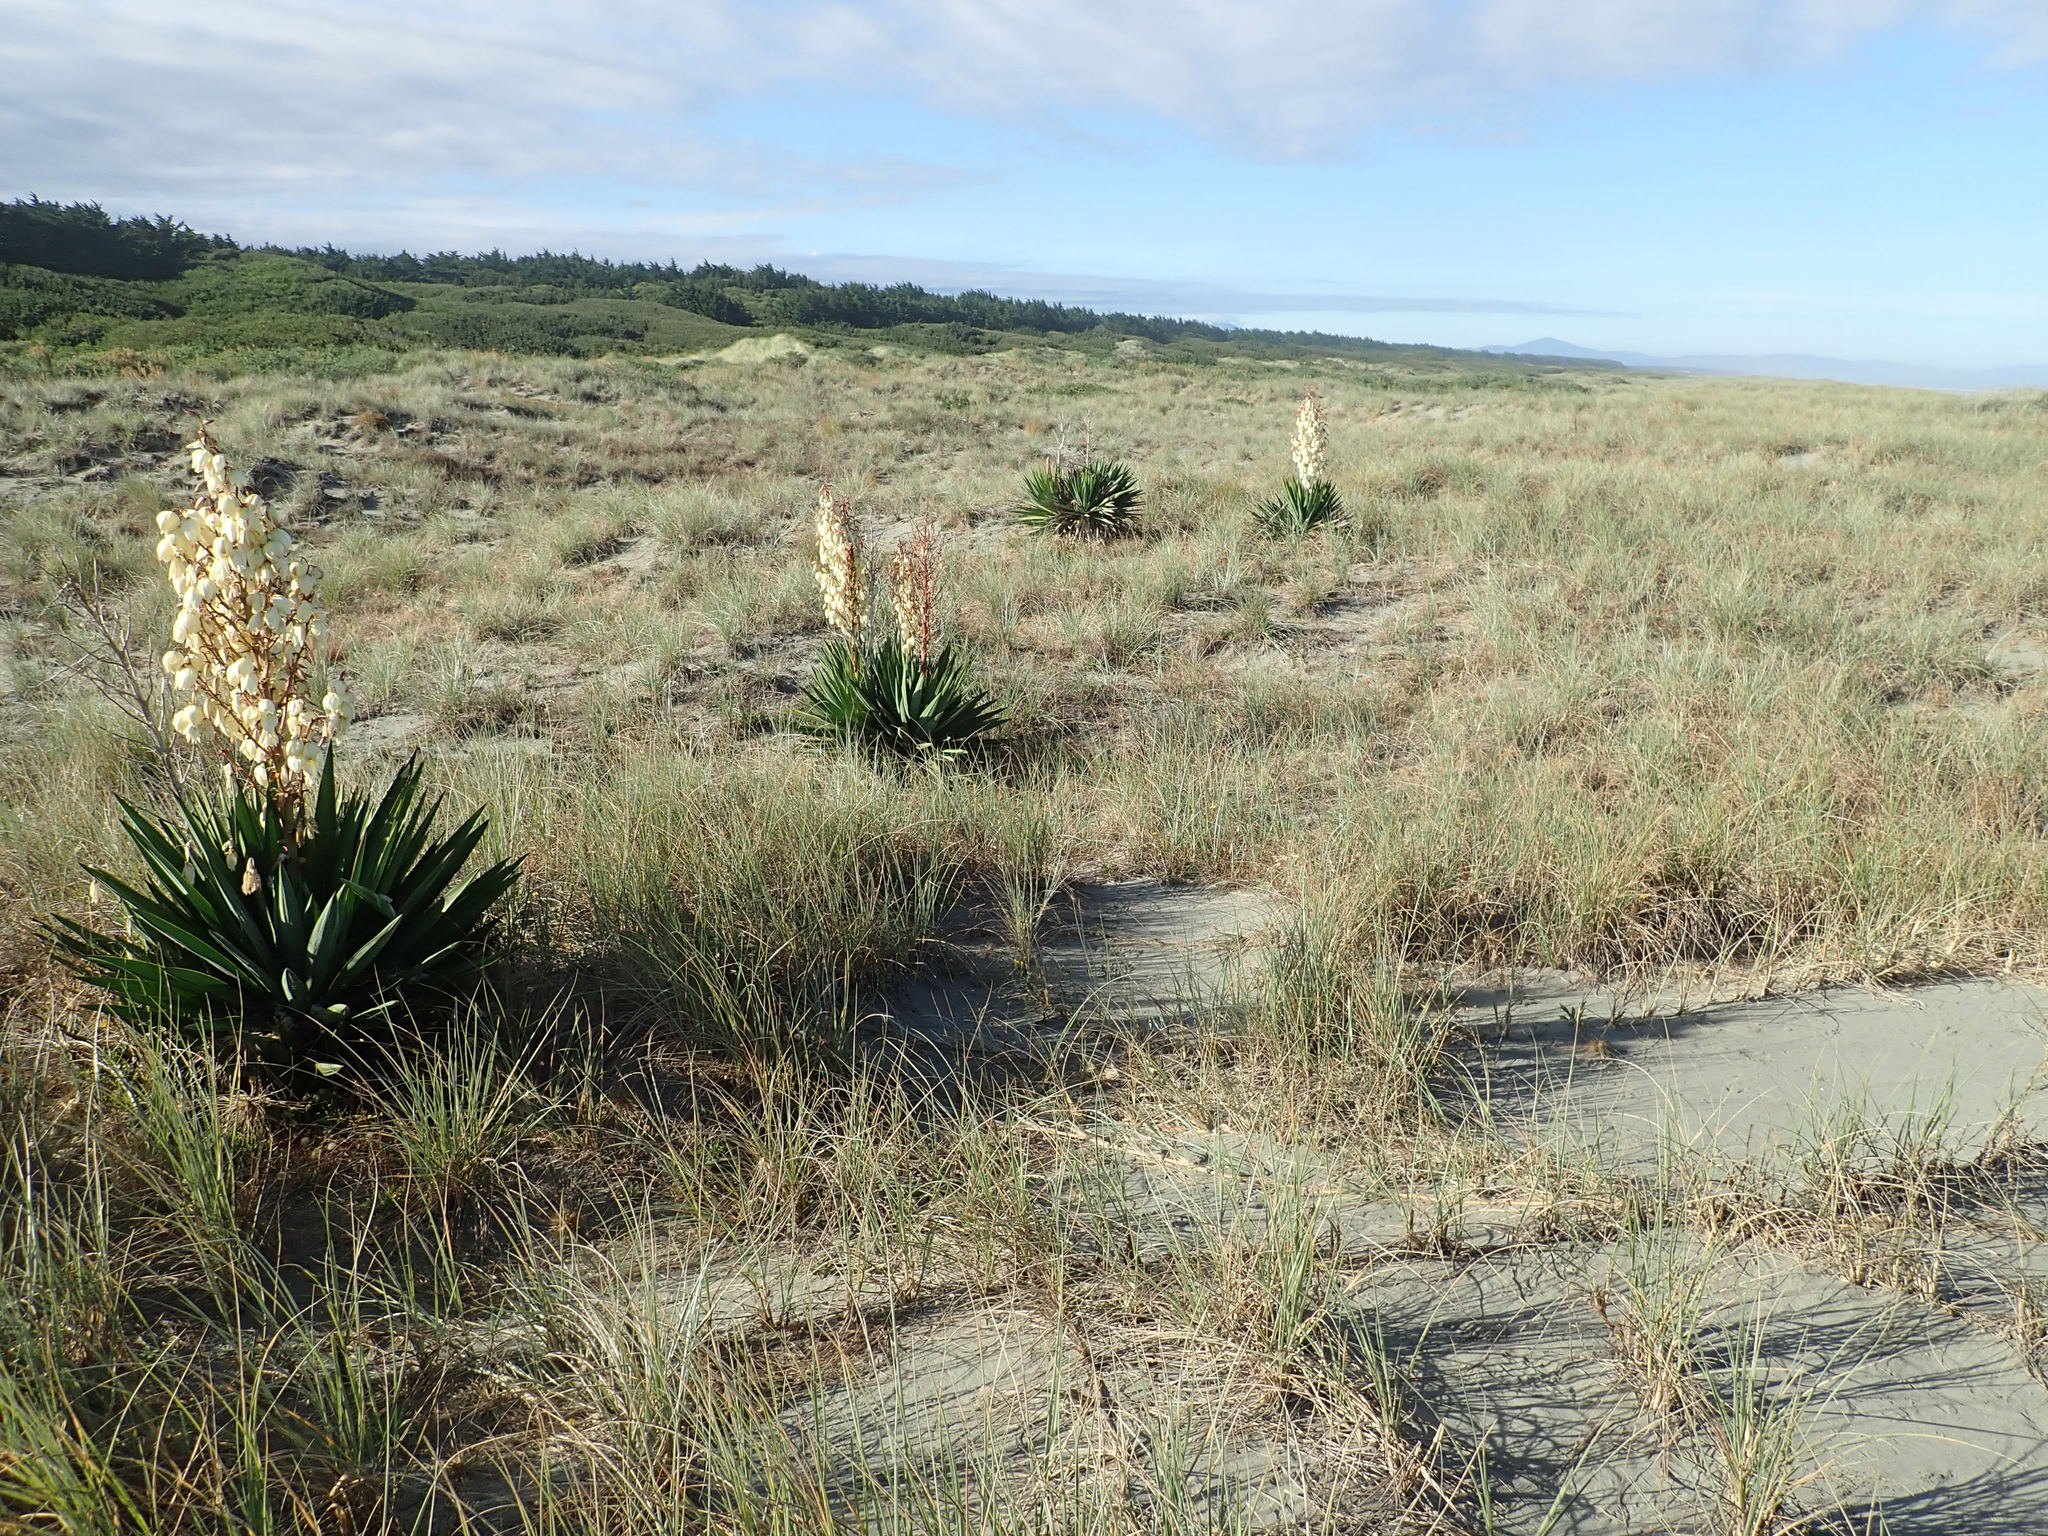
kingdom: Plantae
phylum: Tracheophyta
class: Liliopsida
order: Asparagales
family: Asparagaceae
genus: Yucca
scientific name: Yucca gloriosa
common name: Spanish-dagger
